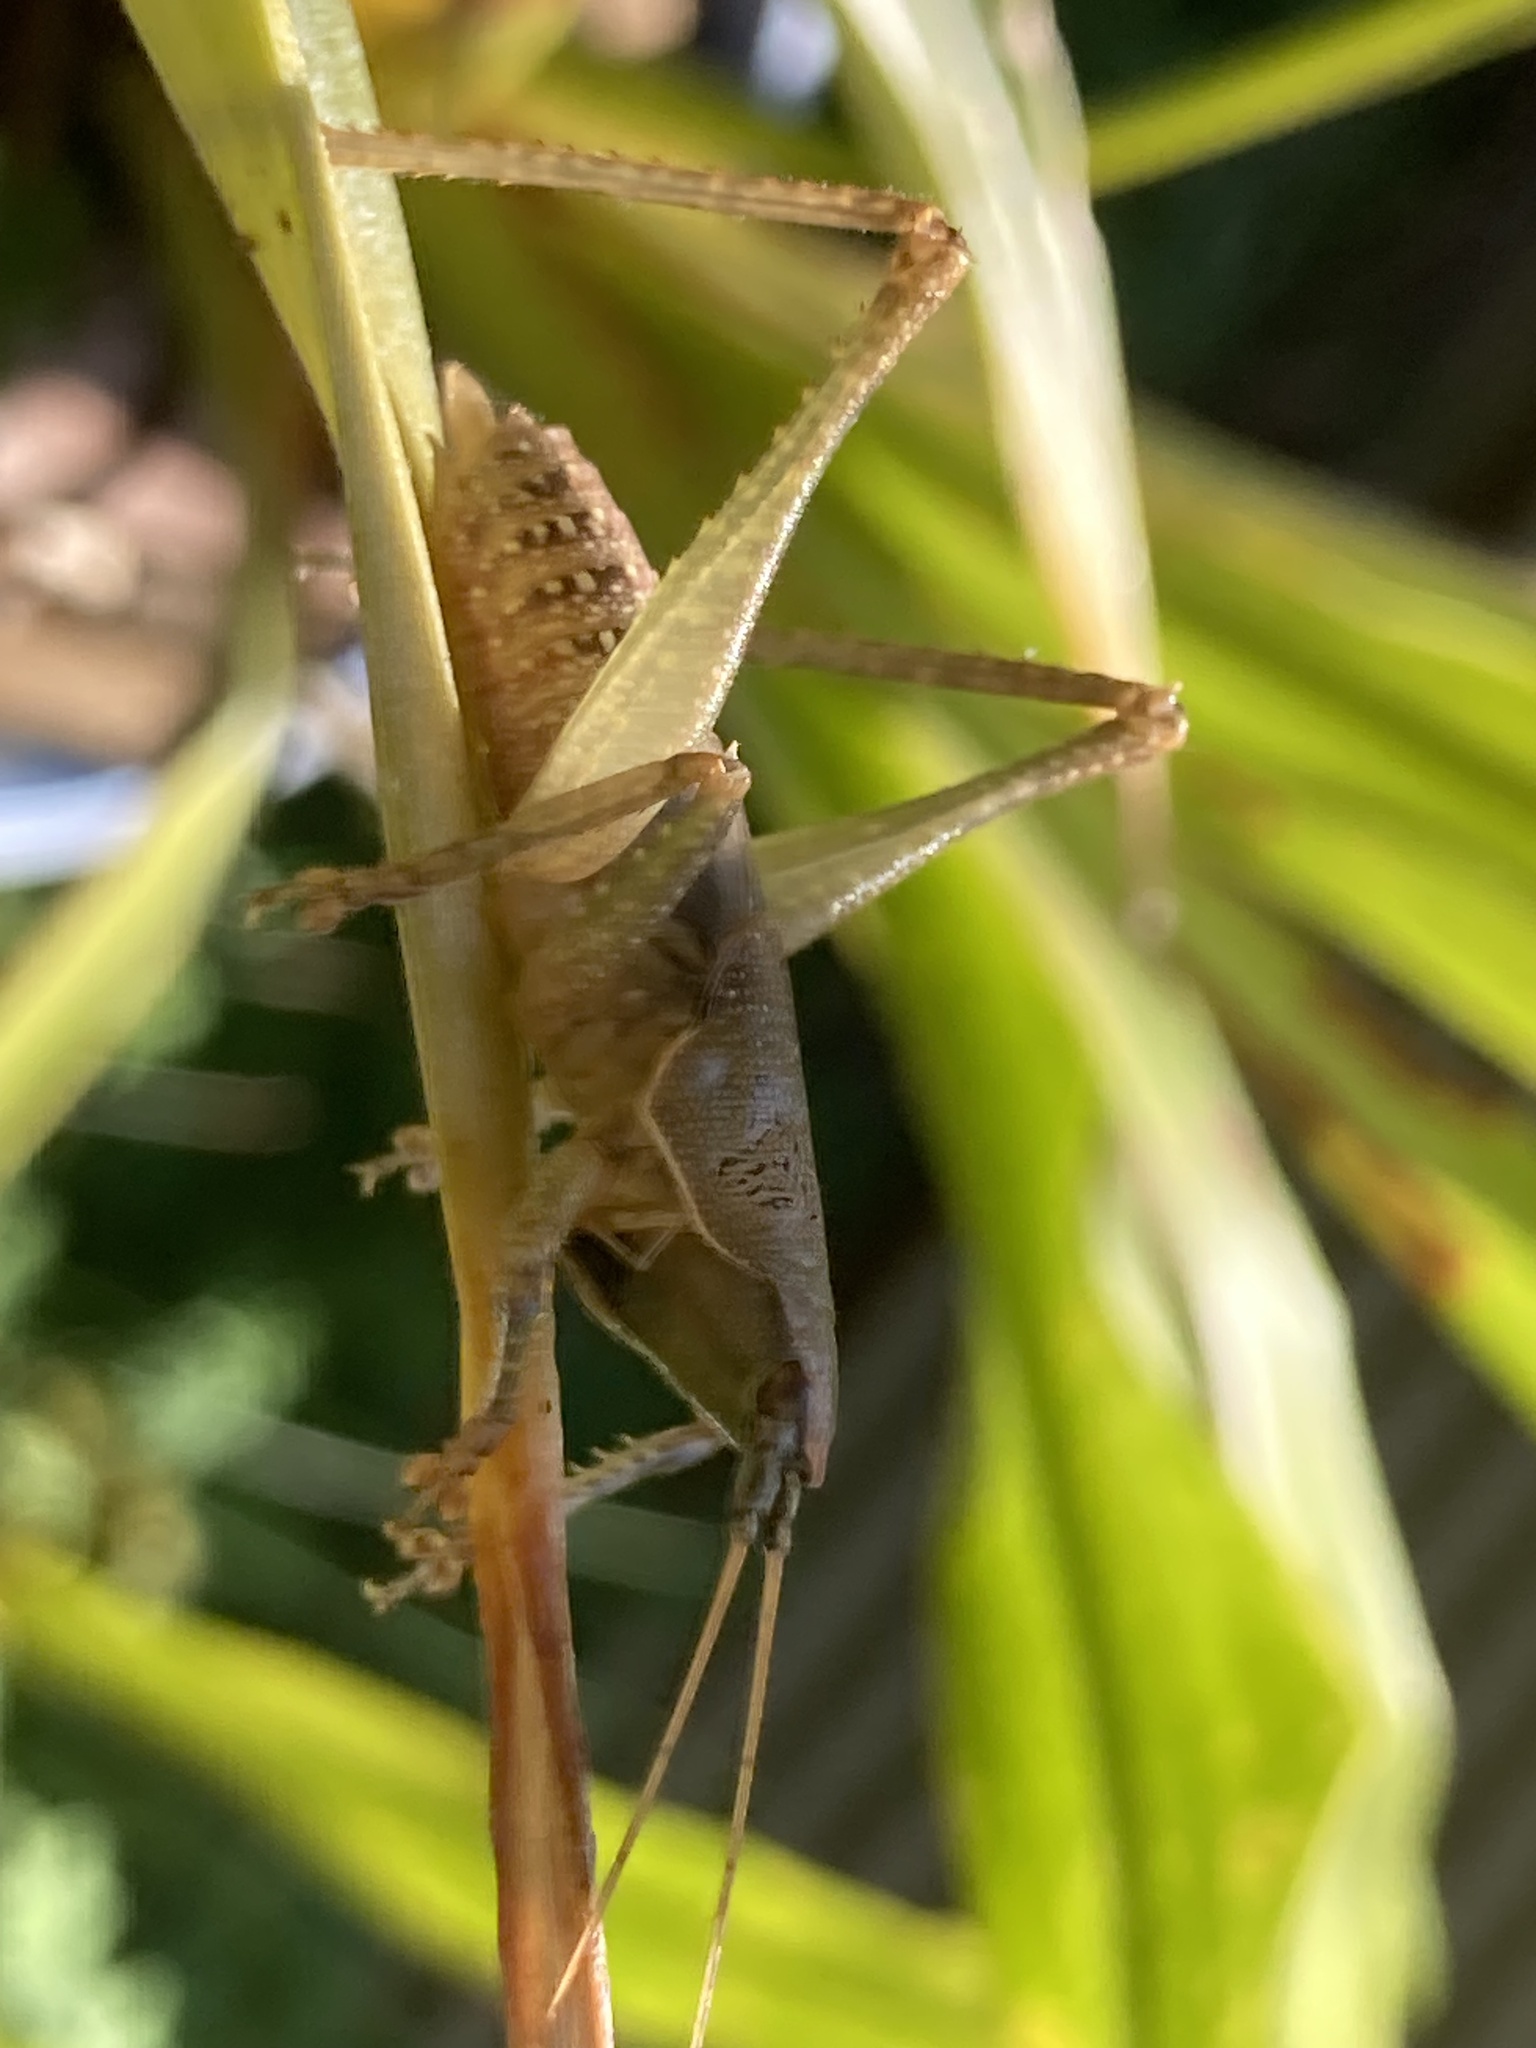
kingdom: Animalia
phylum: Arthropoda
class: Insecta
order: Orthoptera
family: Tettigoniidae
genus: Austrosalomona
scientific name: Austrosalomona falcata
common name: Olive-green coastal katydid
